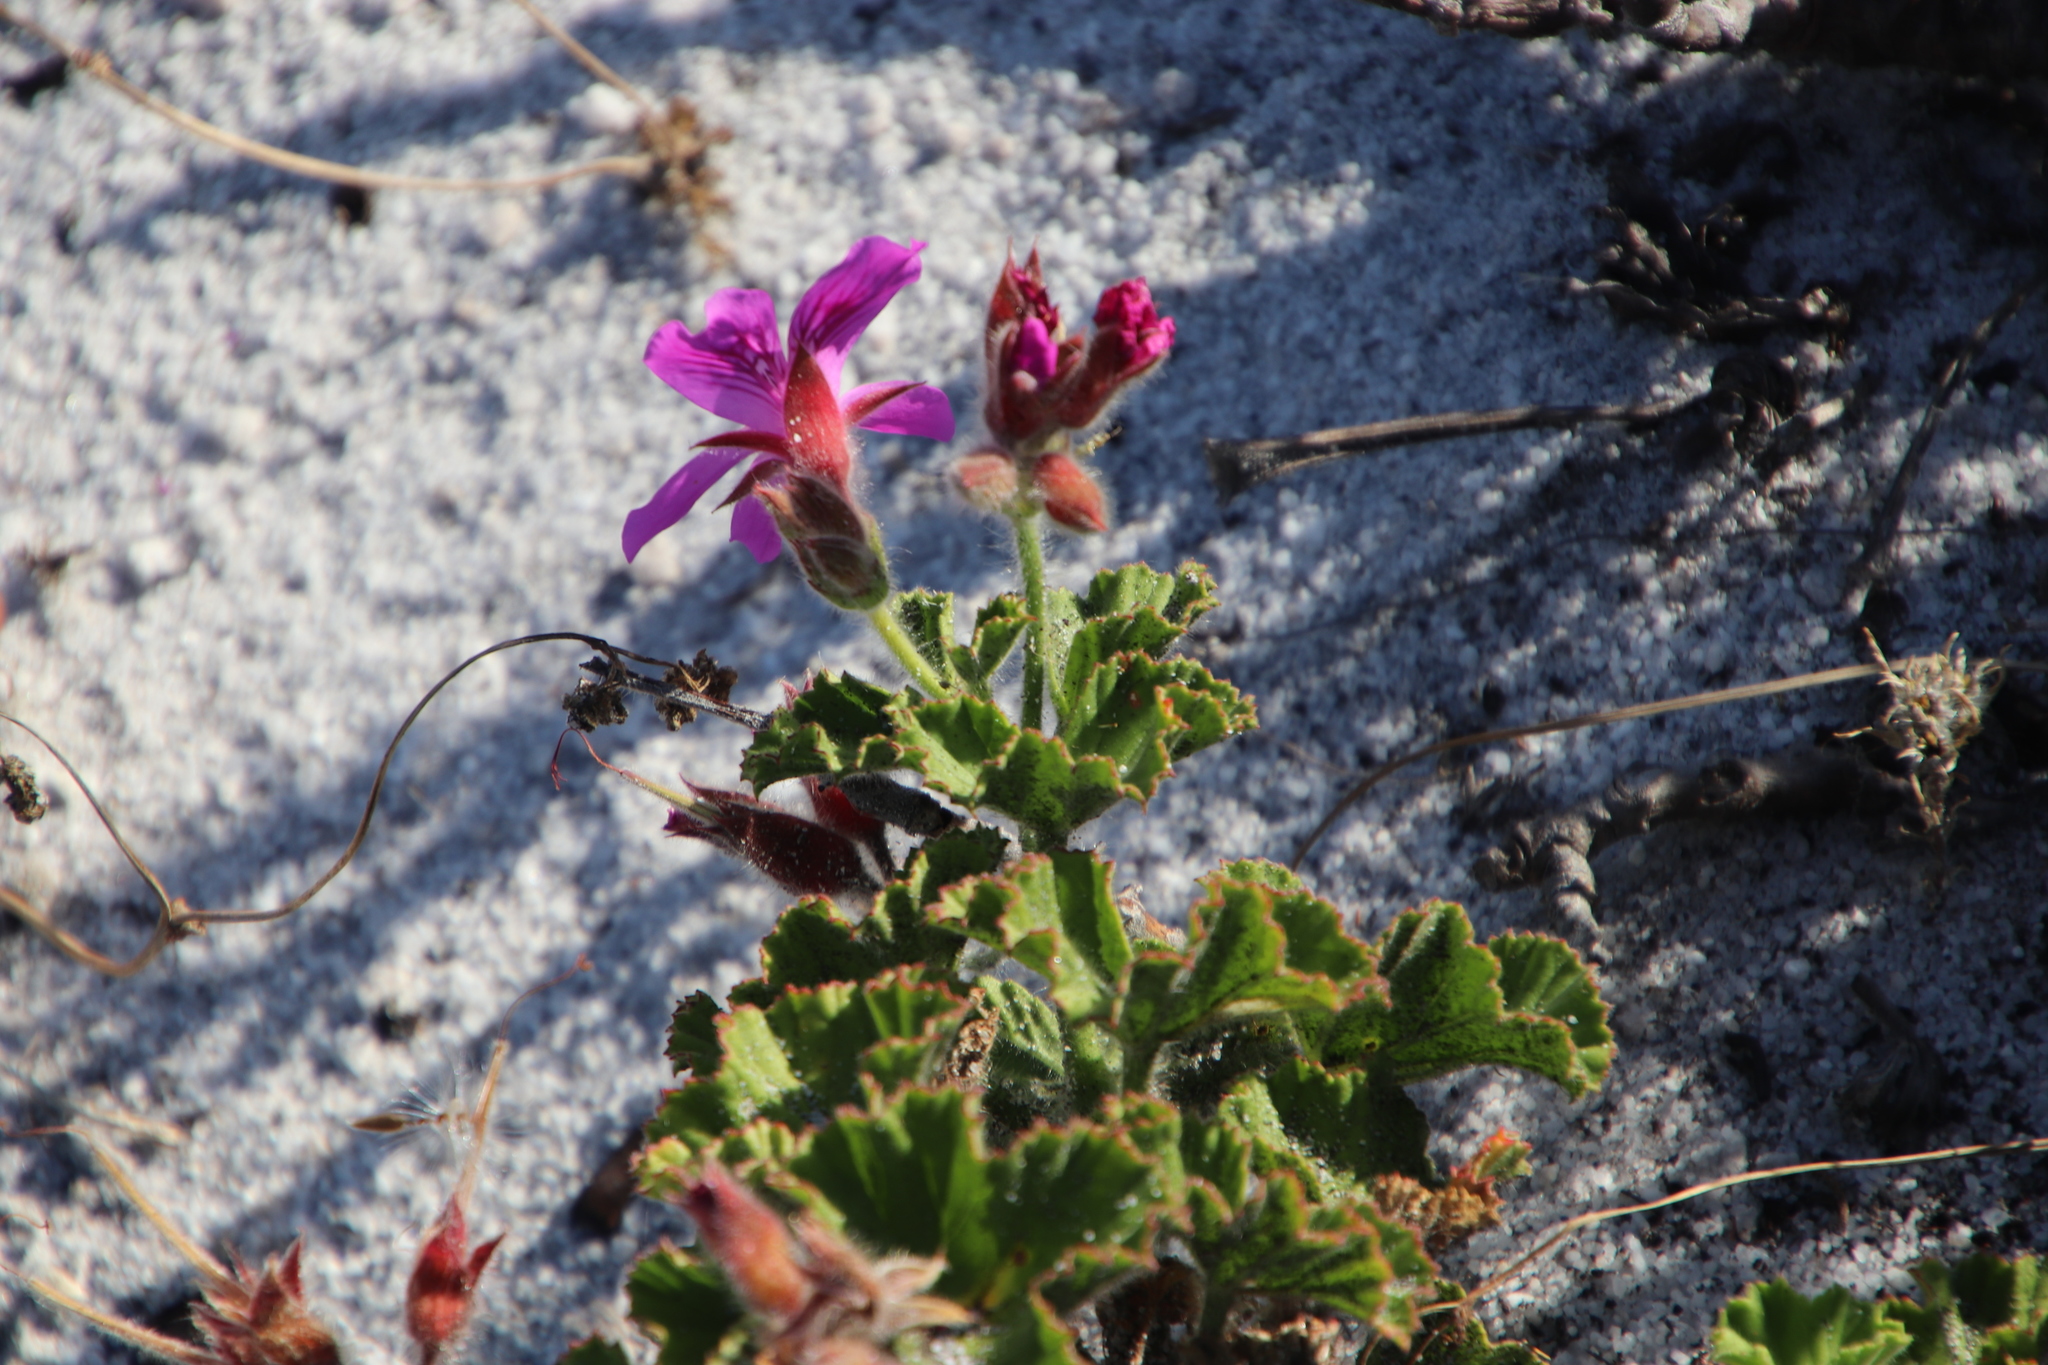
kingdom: Plantae
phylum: Tracheophyta
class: Magnoliopsida
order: Geraniales
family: Geraniaceae
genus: Pelargonium
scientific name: Pelargonium cucullatum
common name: Tree pelargonium
